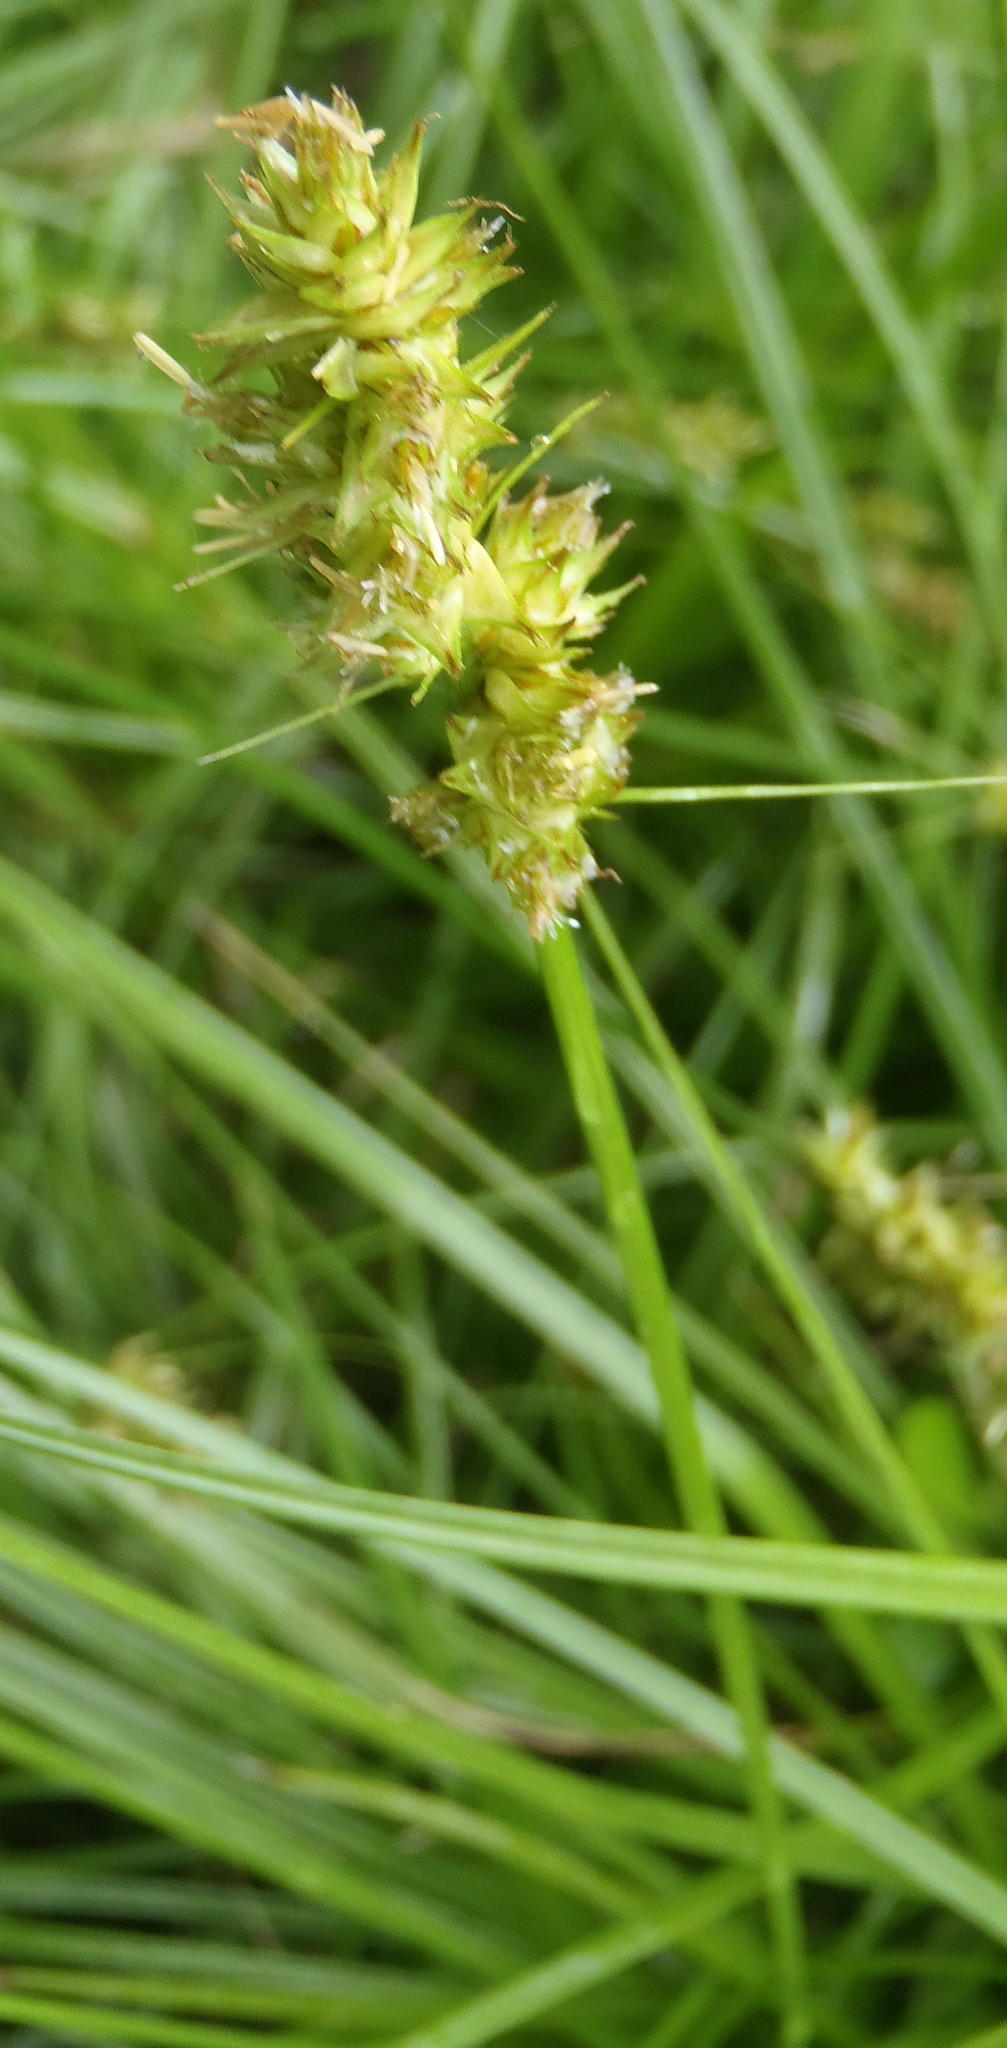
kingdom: Plantae
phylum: Tracheophyta
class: Liliopsida
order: Poales
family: Cyperaceae
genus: Carex
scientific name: Carex glomerata
